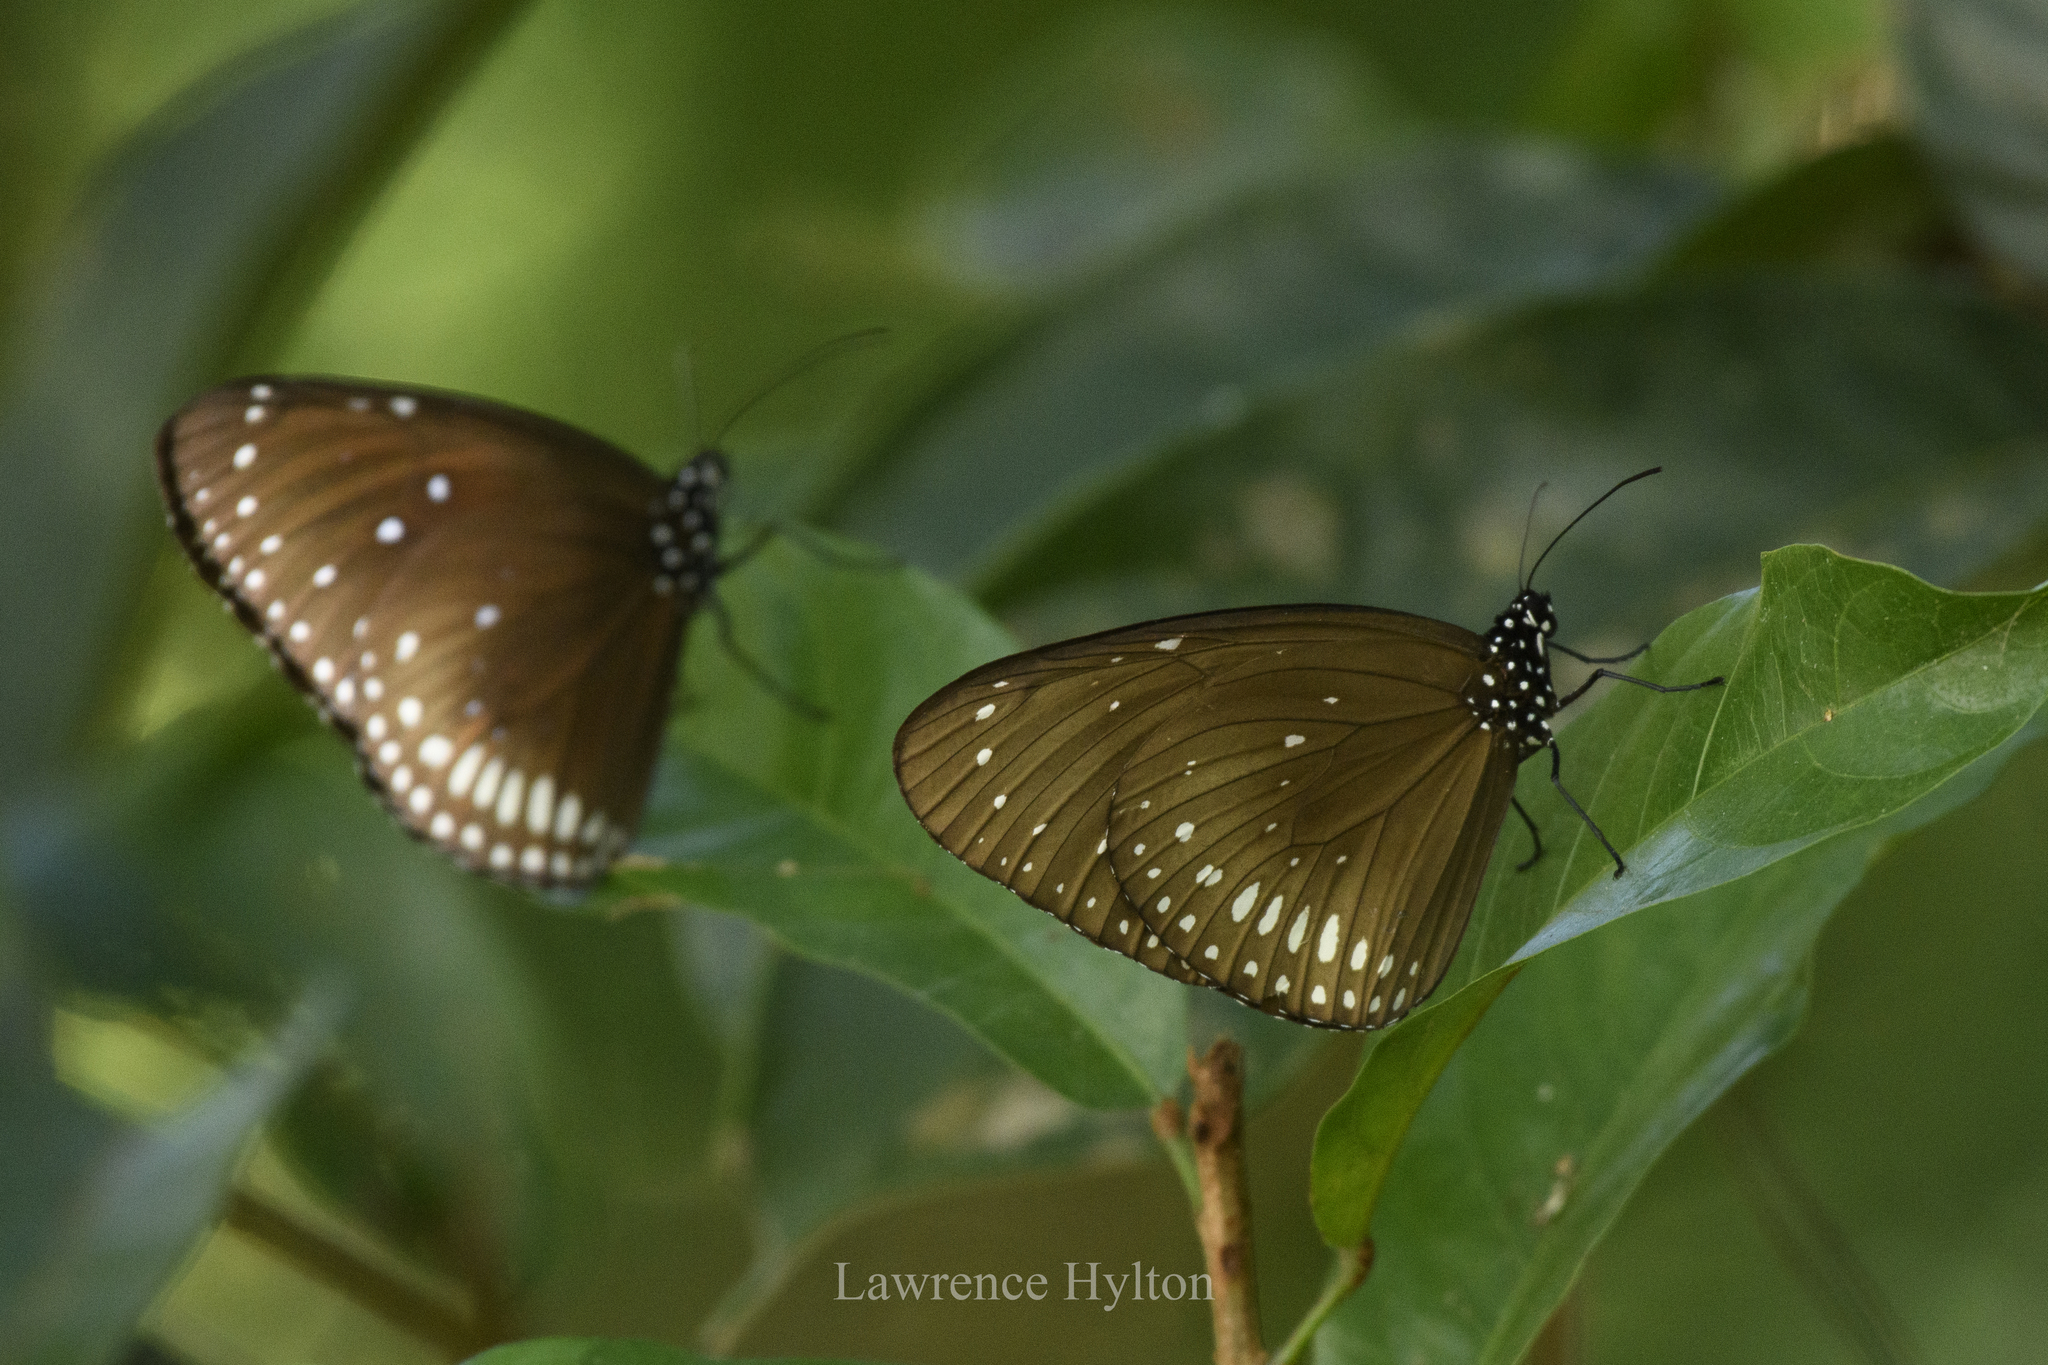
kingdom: Animalia
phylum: Arthropoda
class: Insecta
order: Lepidoptera
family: Nymphalidae
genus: Euploea
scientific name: Euploea midamus
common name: Blue-spotted crow butterfly
